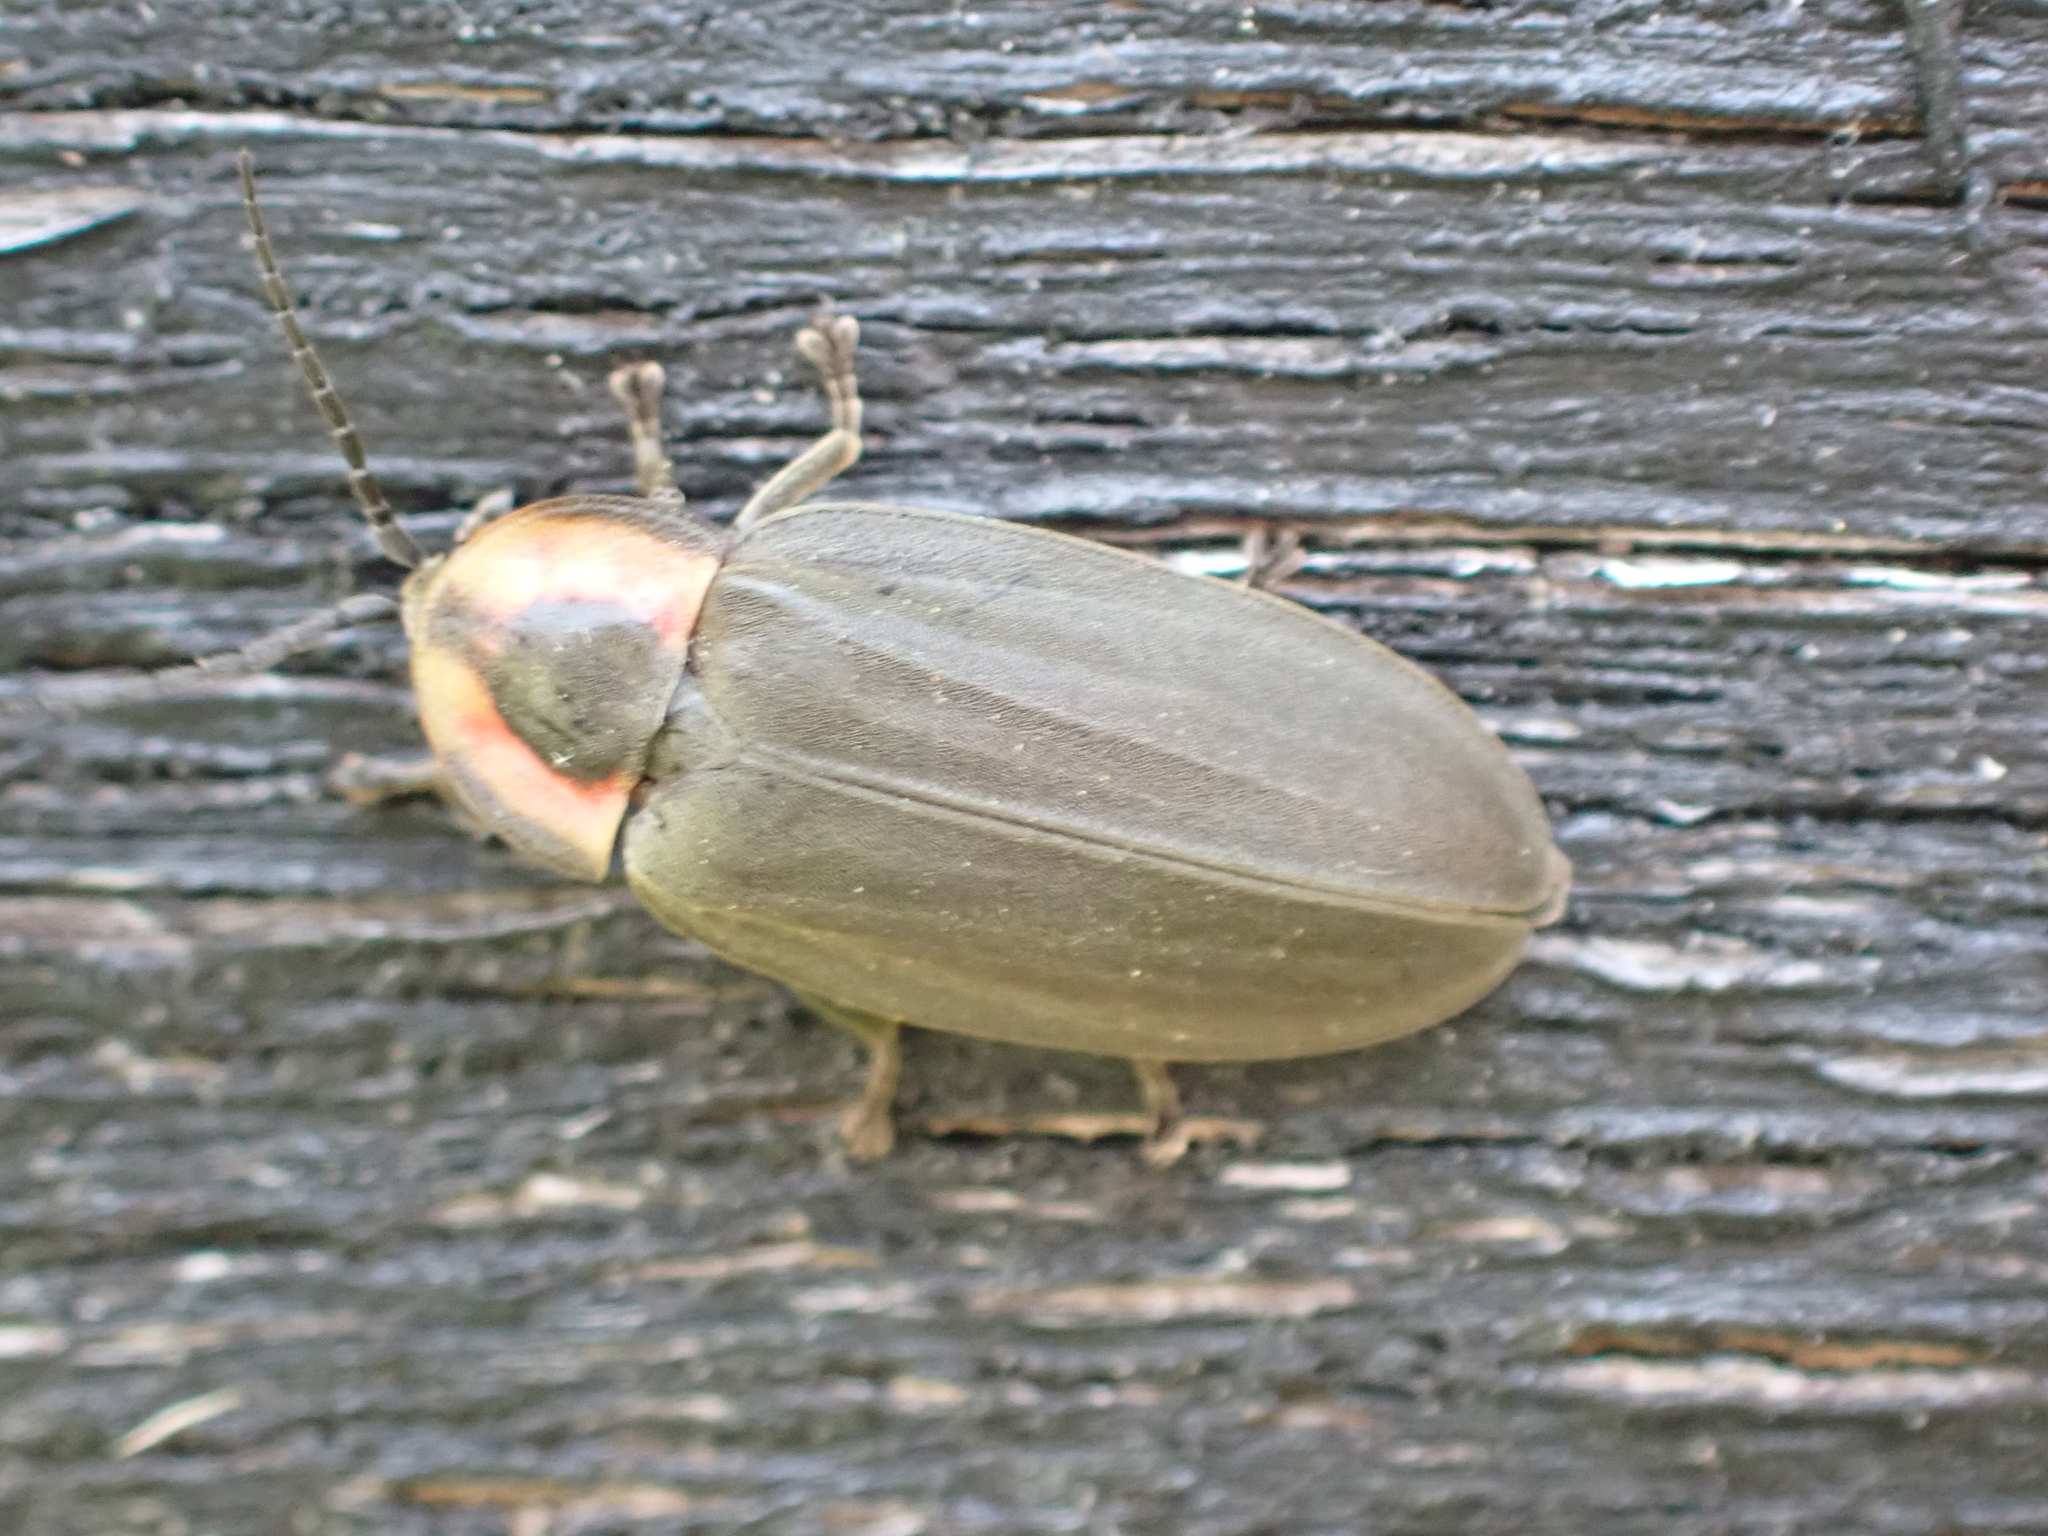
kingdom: Animalia
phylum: Arthropoda
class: Insecta
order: Coleoptera
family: Lampyridae
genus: Photinus
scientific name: Photinus corrusca
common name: Winter firefly
